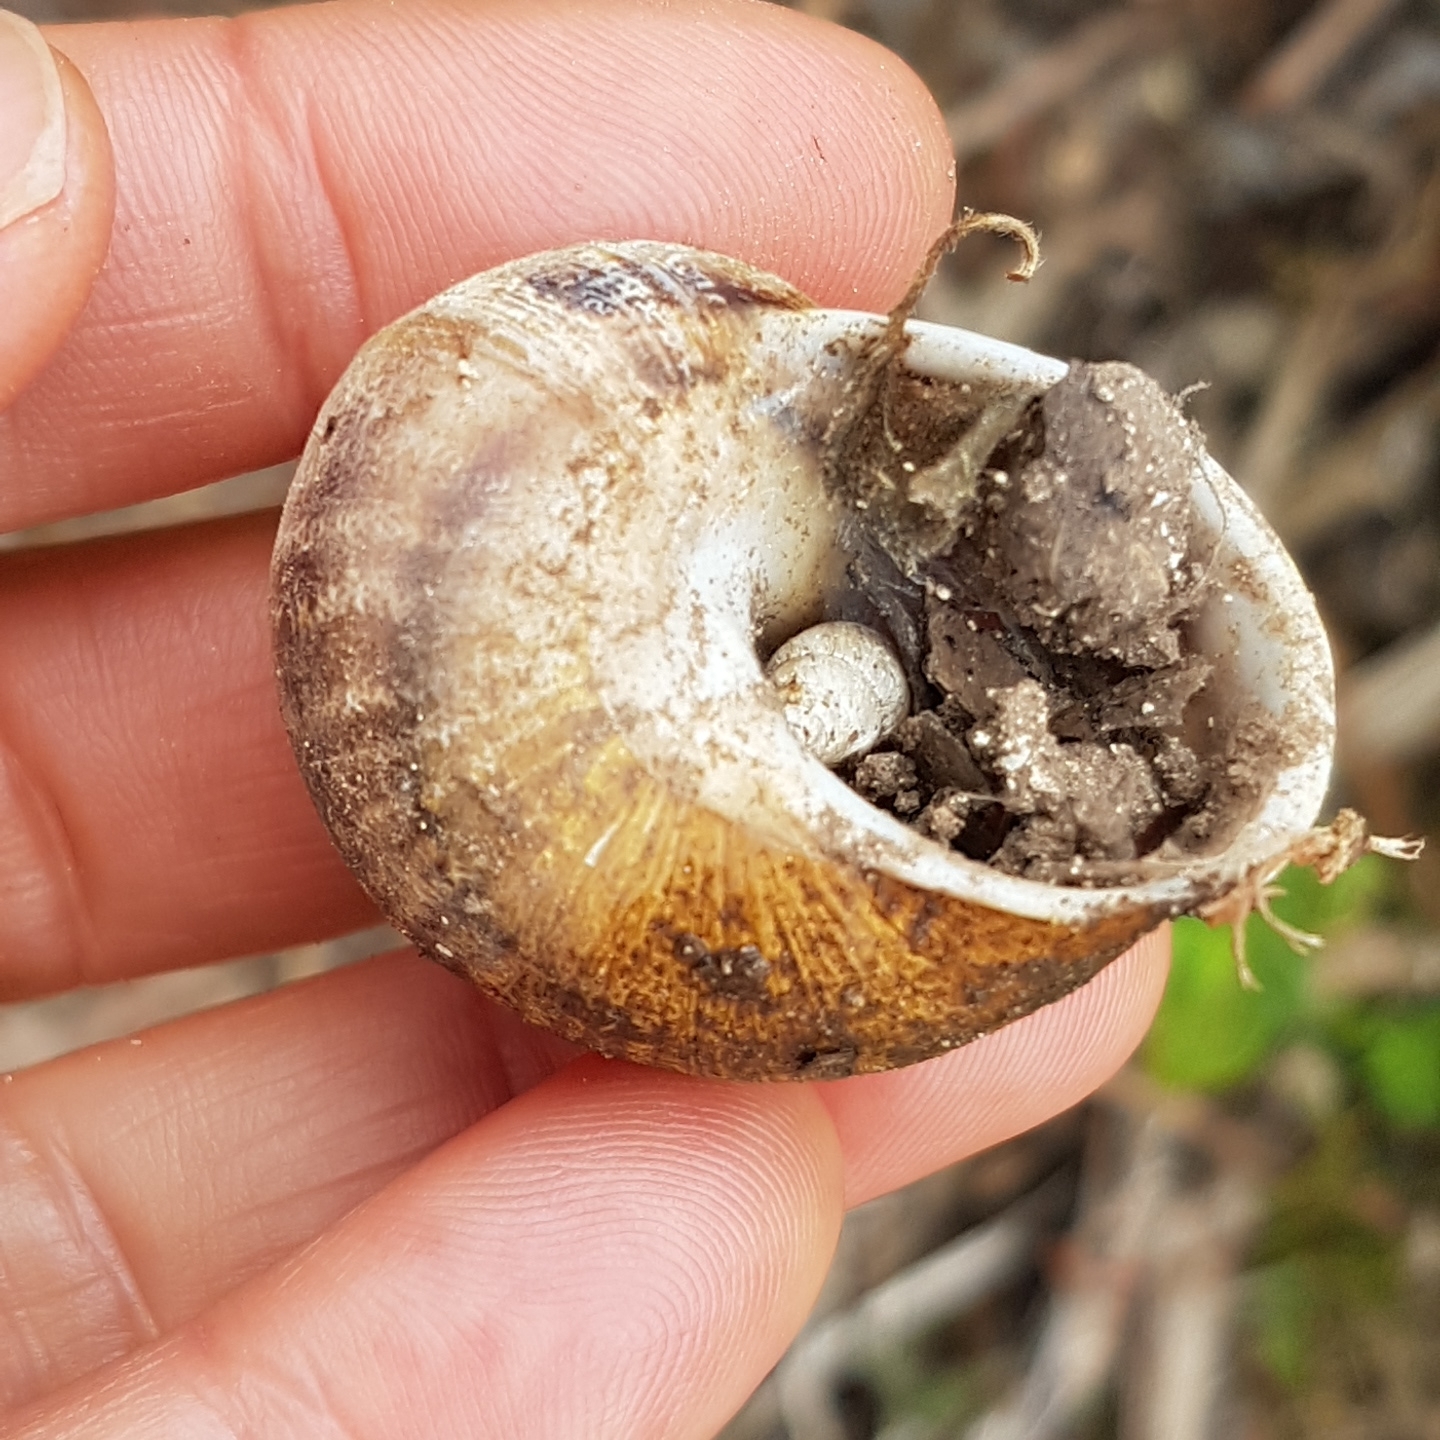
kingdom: Animalia
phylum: Mollusca
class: Gastropoda
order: Stylommatophora
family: Helicidae
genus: Cornu
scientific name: Cornu aspersum
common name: Brown garden snail
